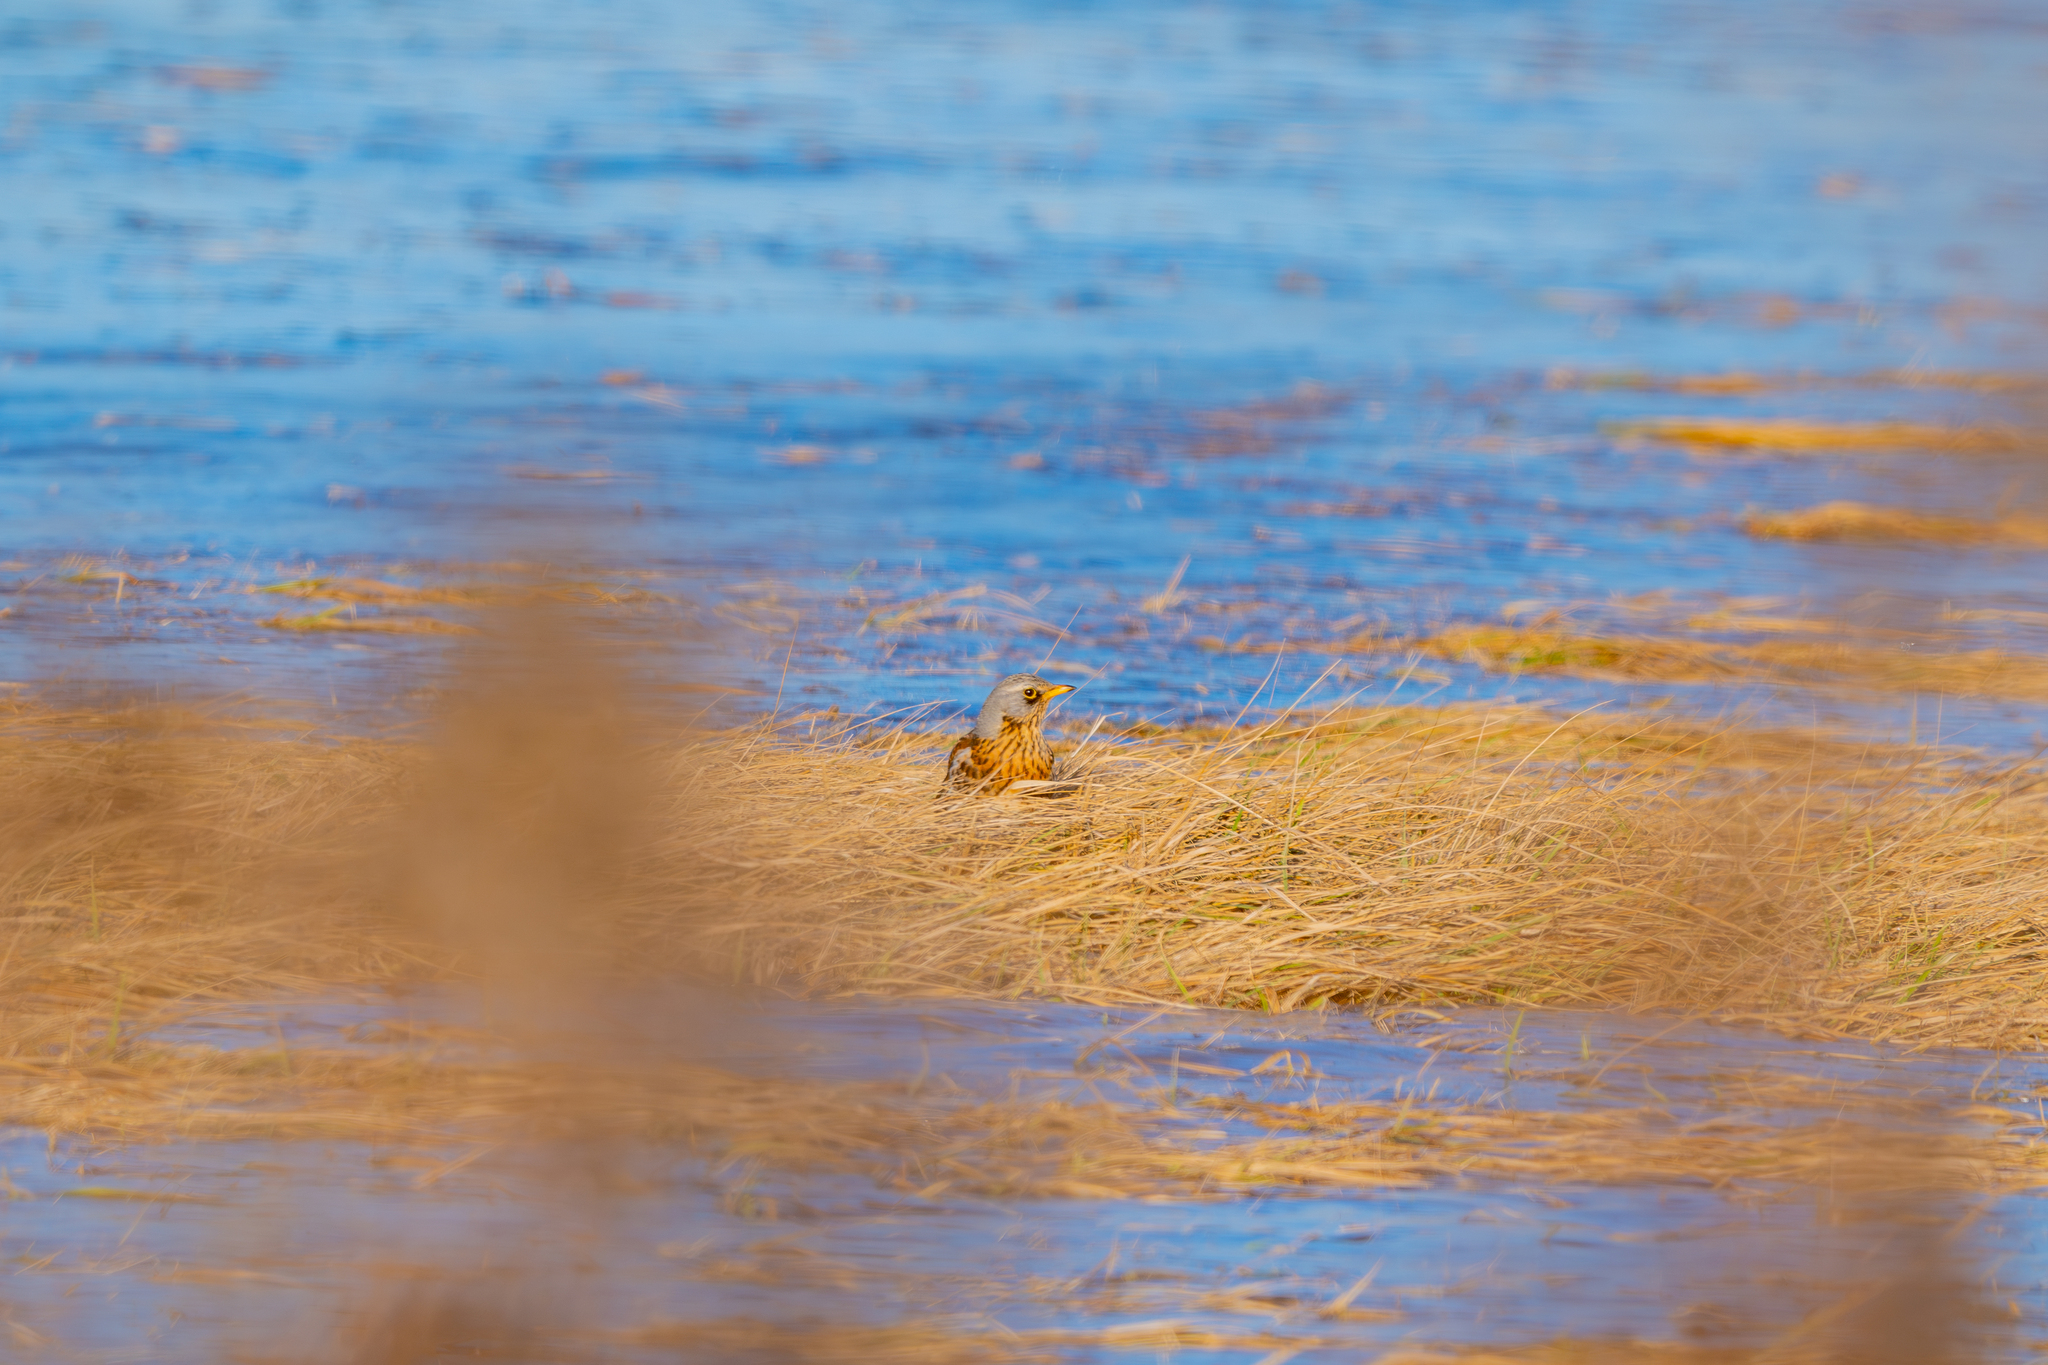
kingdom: Animalia
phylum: Chordata
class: Aves
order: Passeriformes
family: Turdidae
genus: Turdus
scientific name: Turdus pilaris
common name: Fieldfare
